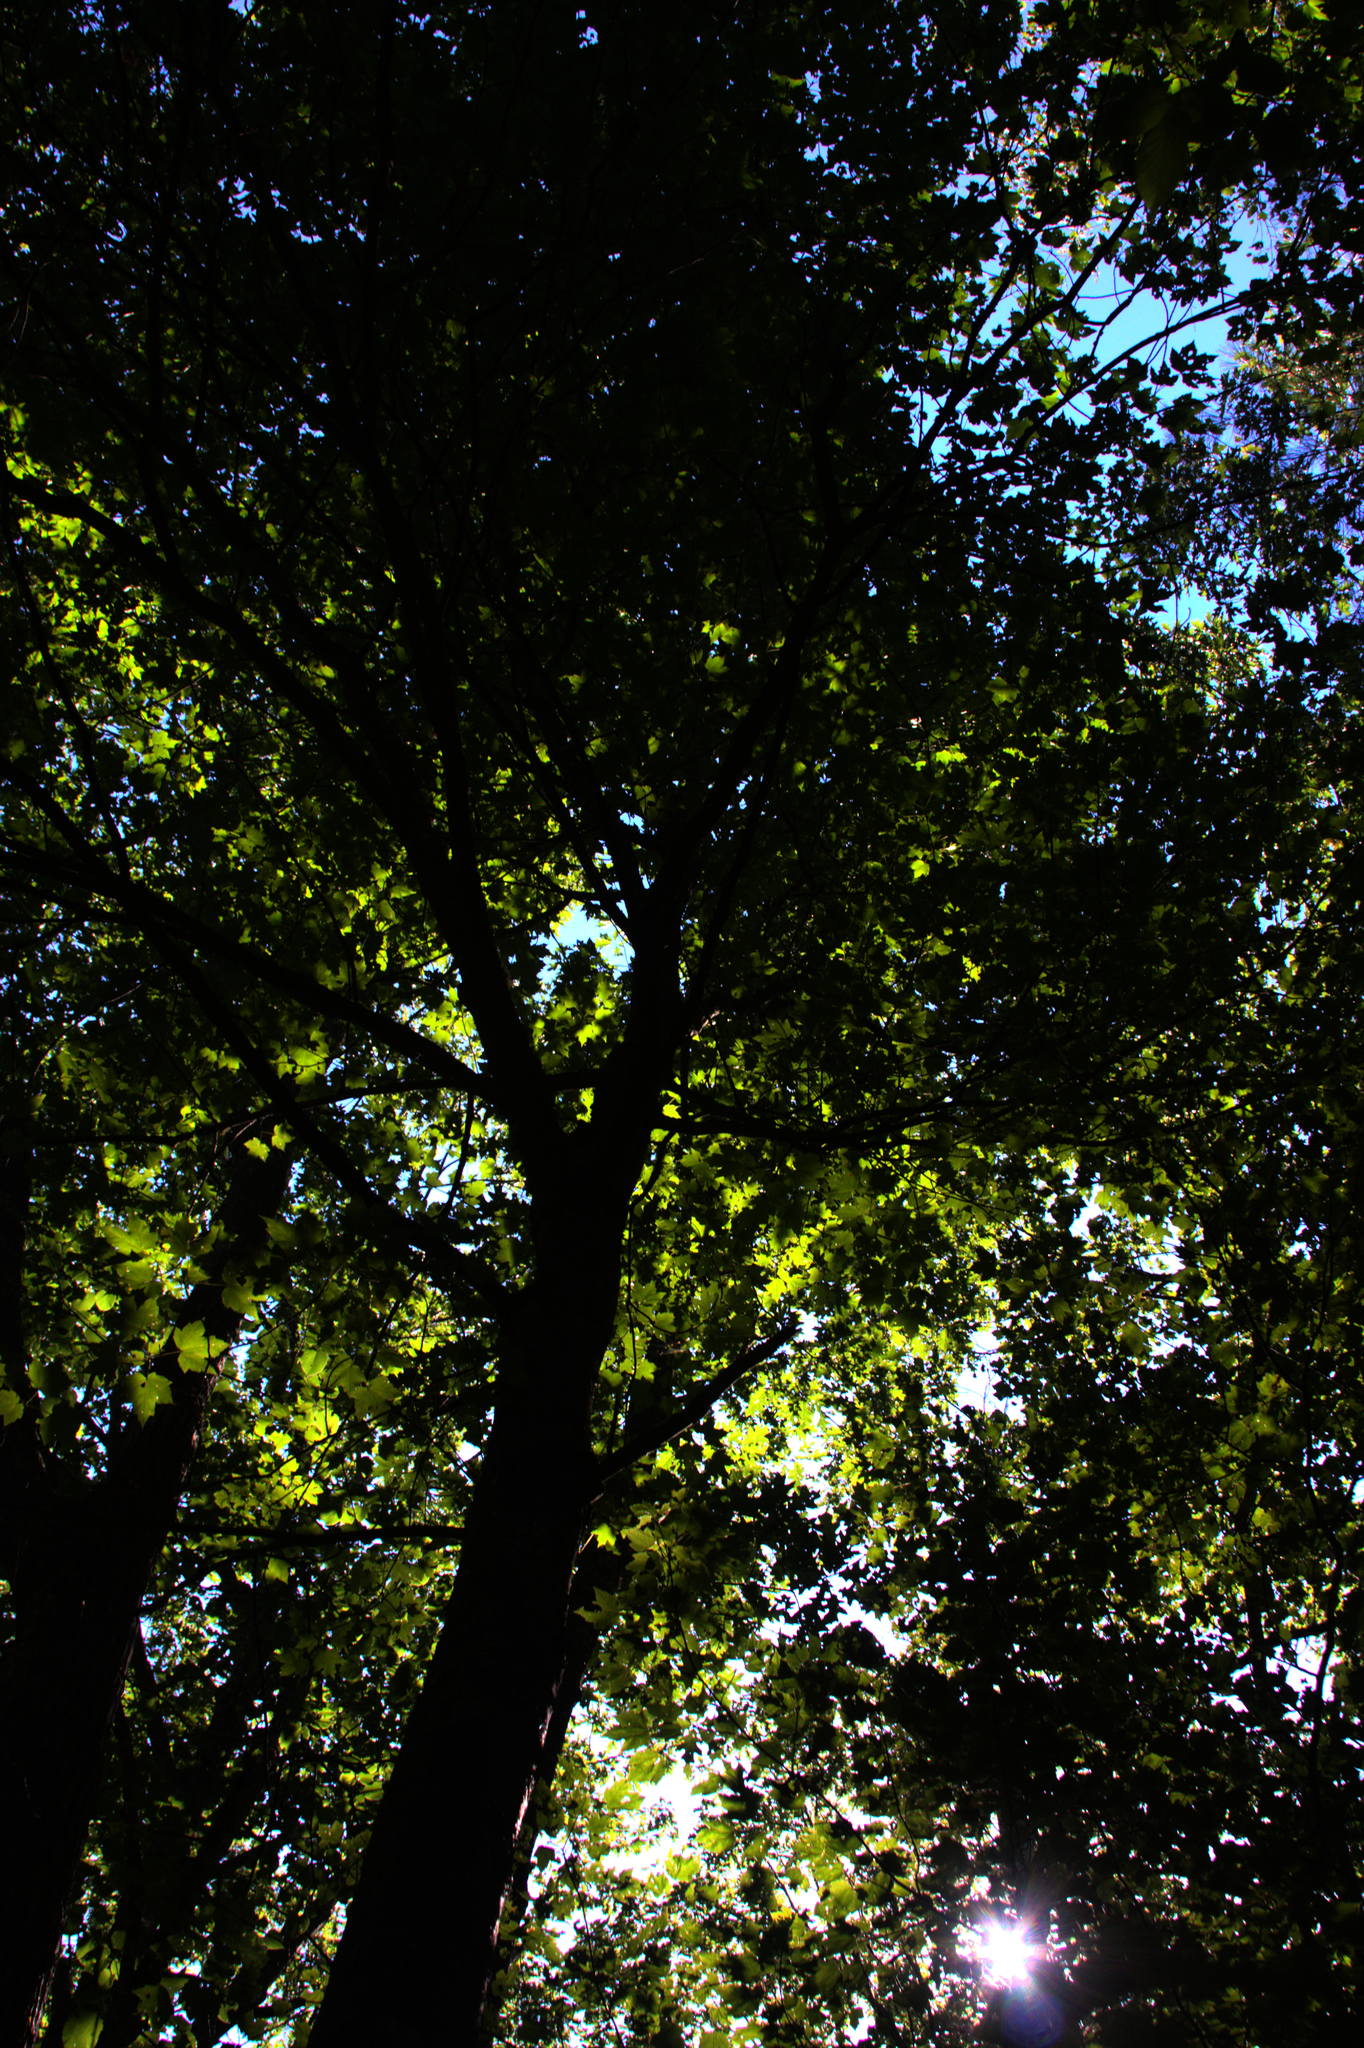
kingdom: Plantae
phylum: Tracheophyta
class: Magnoliopsida
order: Sapindales
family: Sapindaceae
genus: Acer
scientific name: Acer rubrum
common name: Red maple
